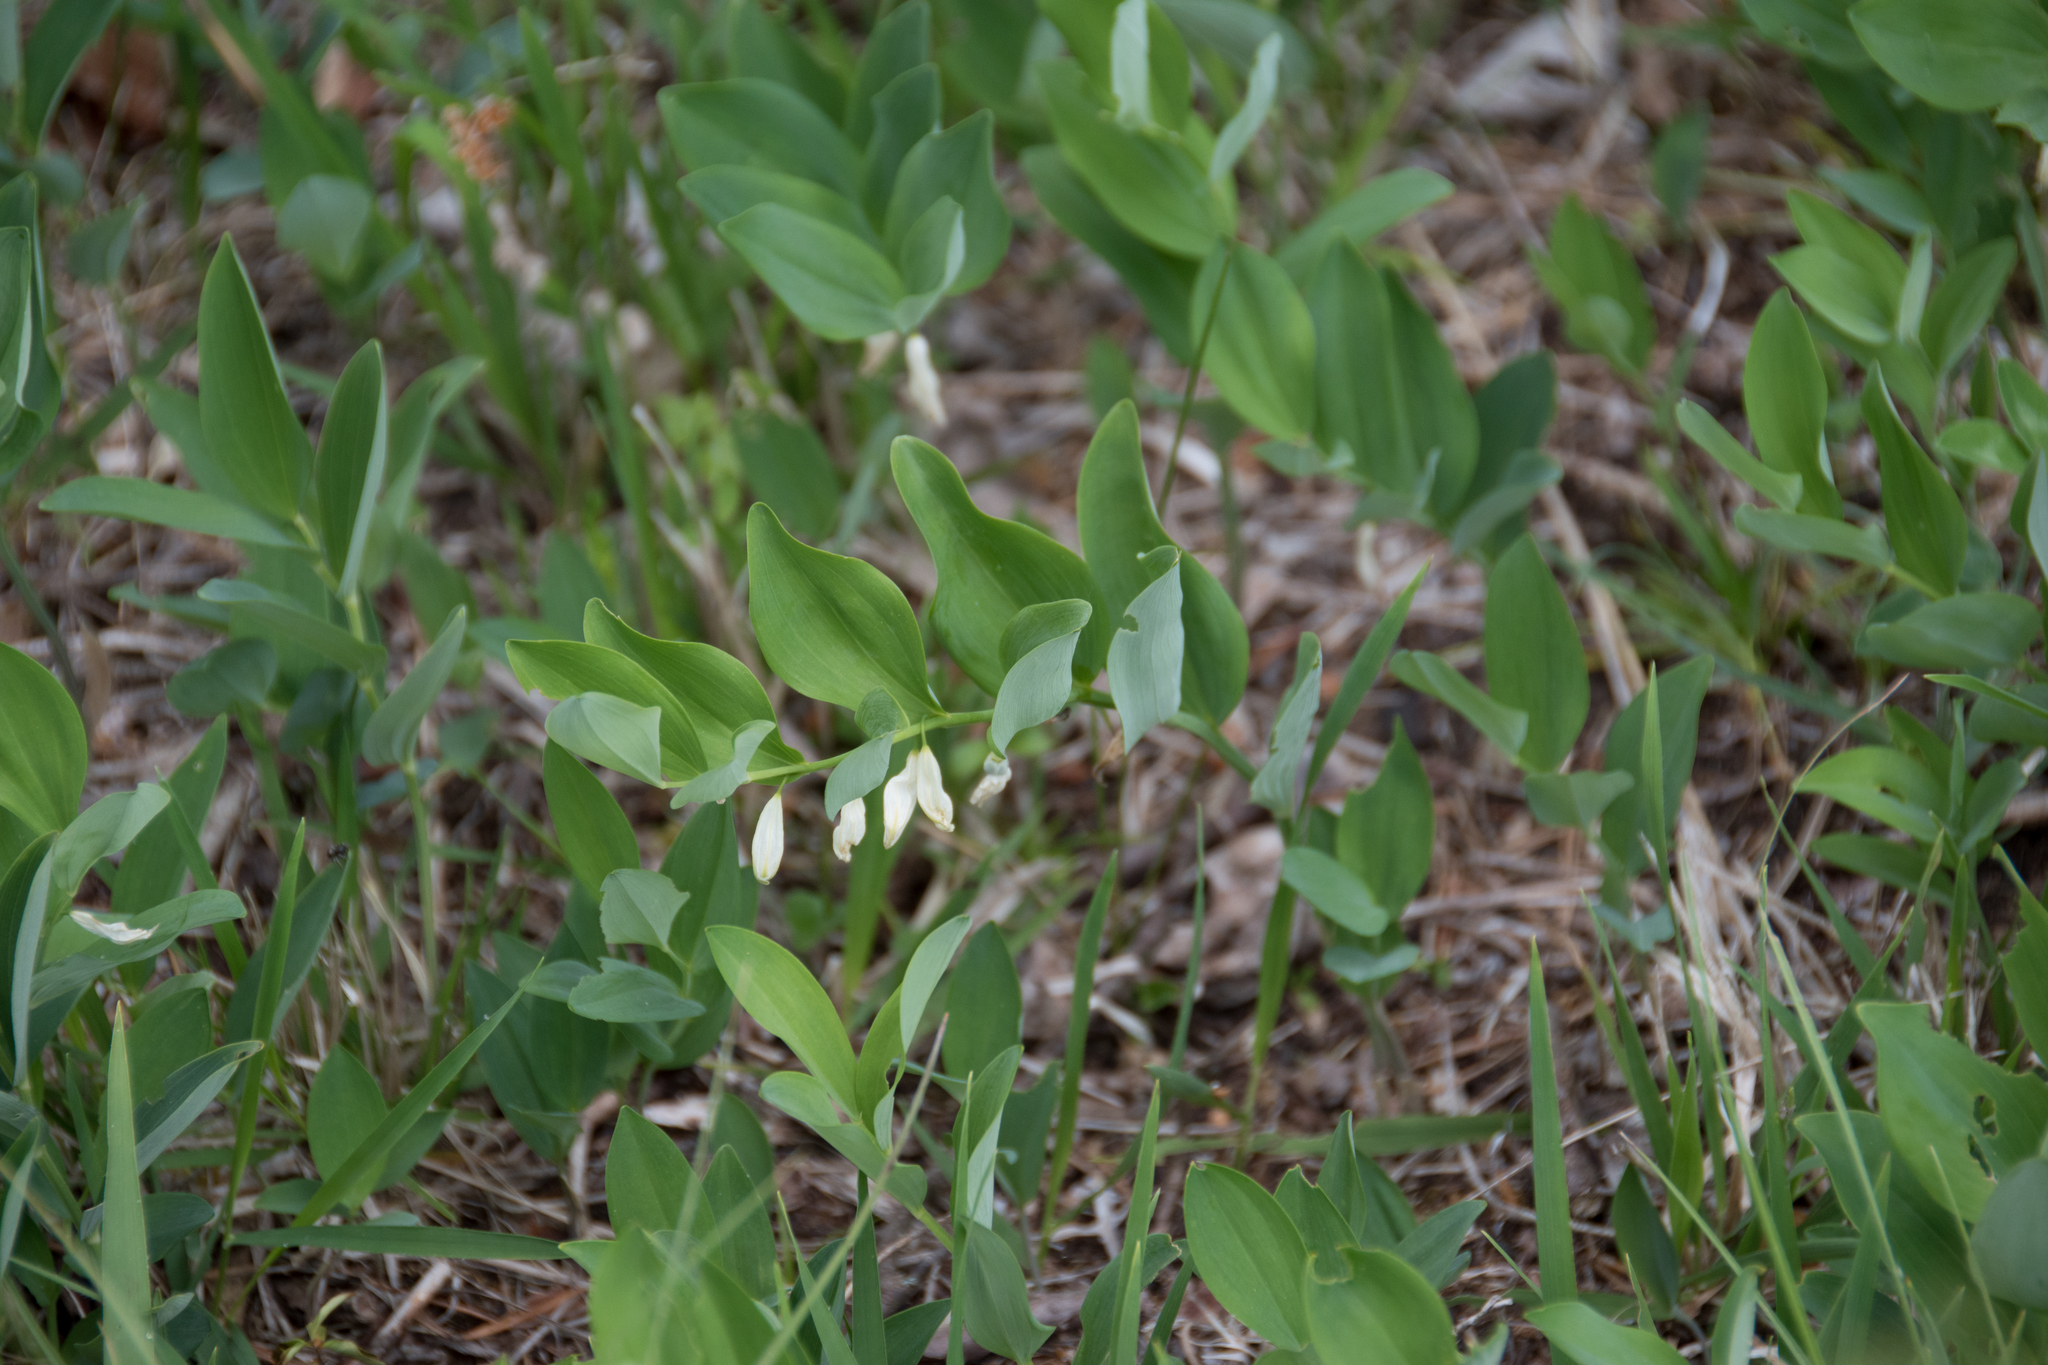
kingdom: Plantae
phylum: Tracheophyta
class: Liliopsida
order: Asparagales
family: Asparagaceae
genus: Polygonatum
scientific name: Polygonatum odoratum
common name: Angular solomon's-seal
